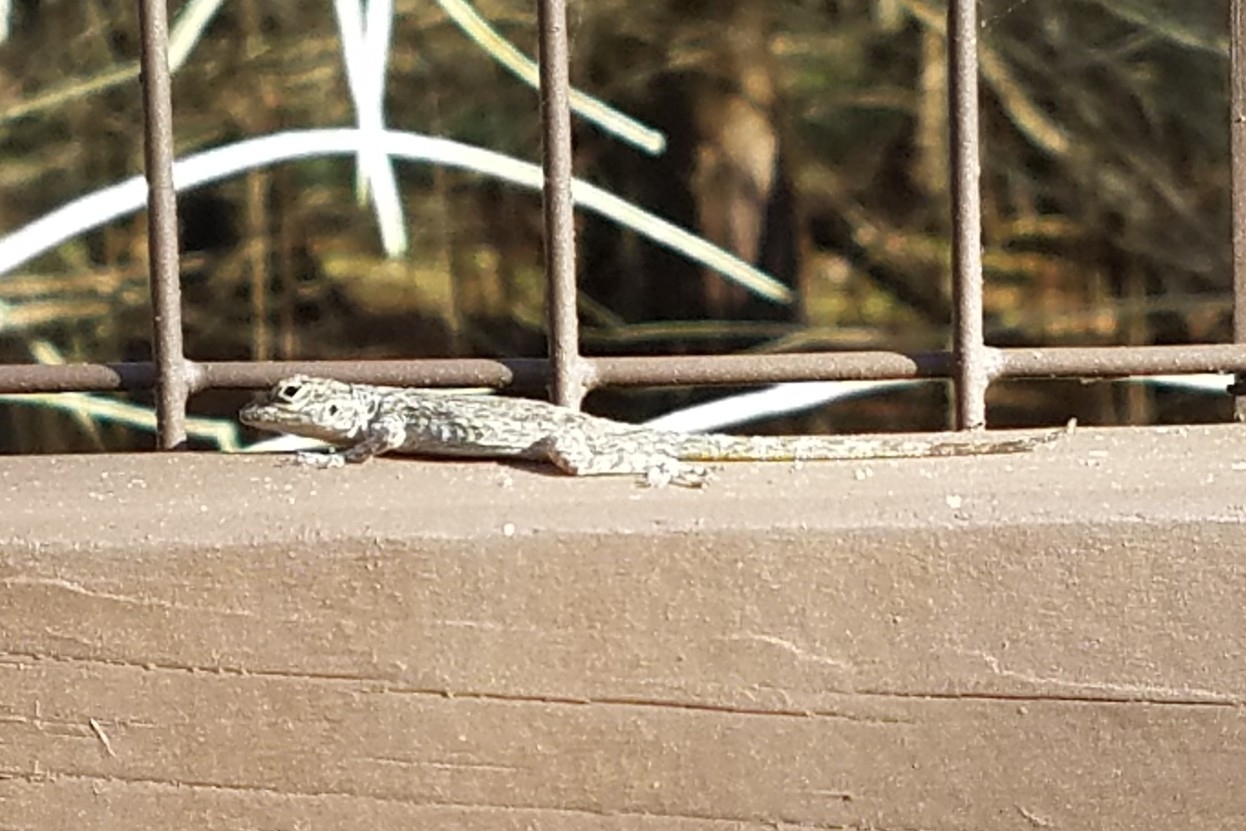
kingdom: Animalia
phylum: Chordata
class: Squamata
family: Dactyloidae
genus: Anolis
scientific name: Anolis distichus
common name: Bark anole
